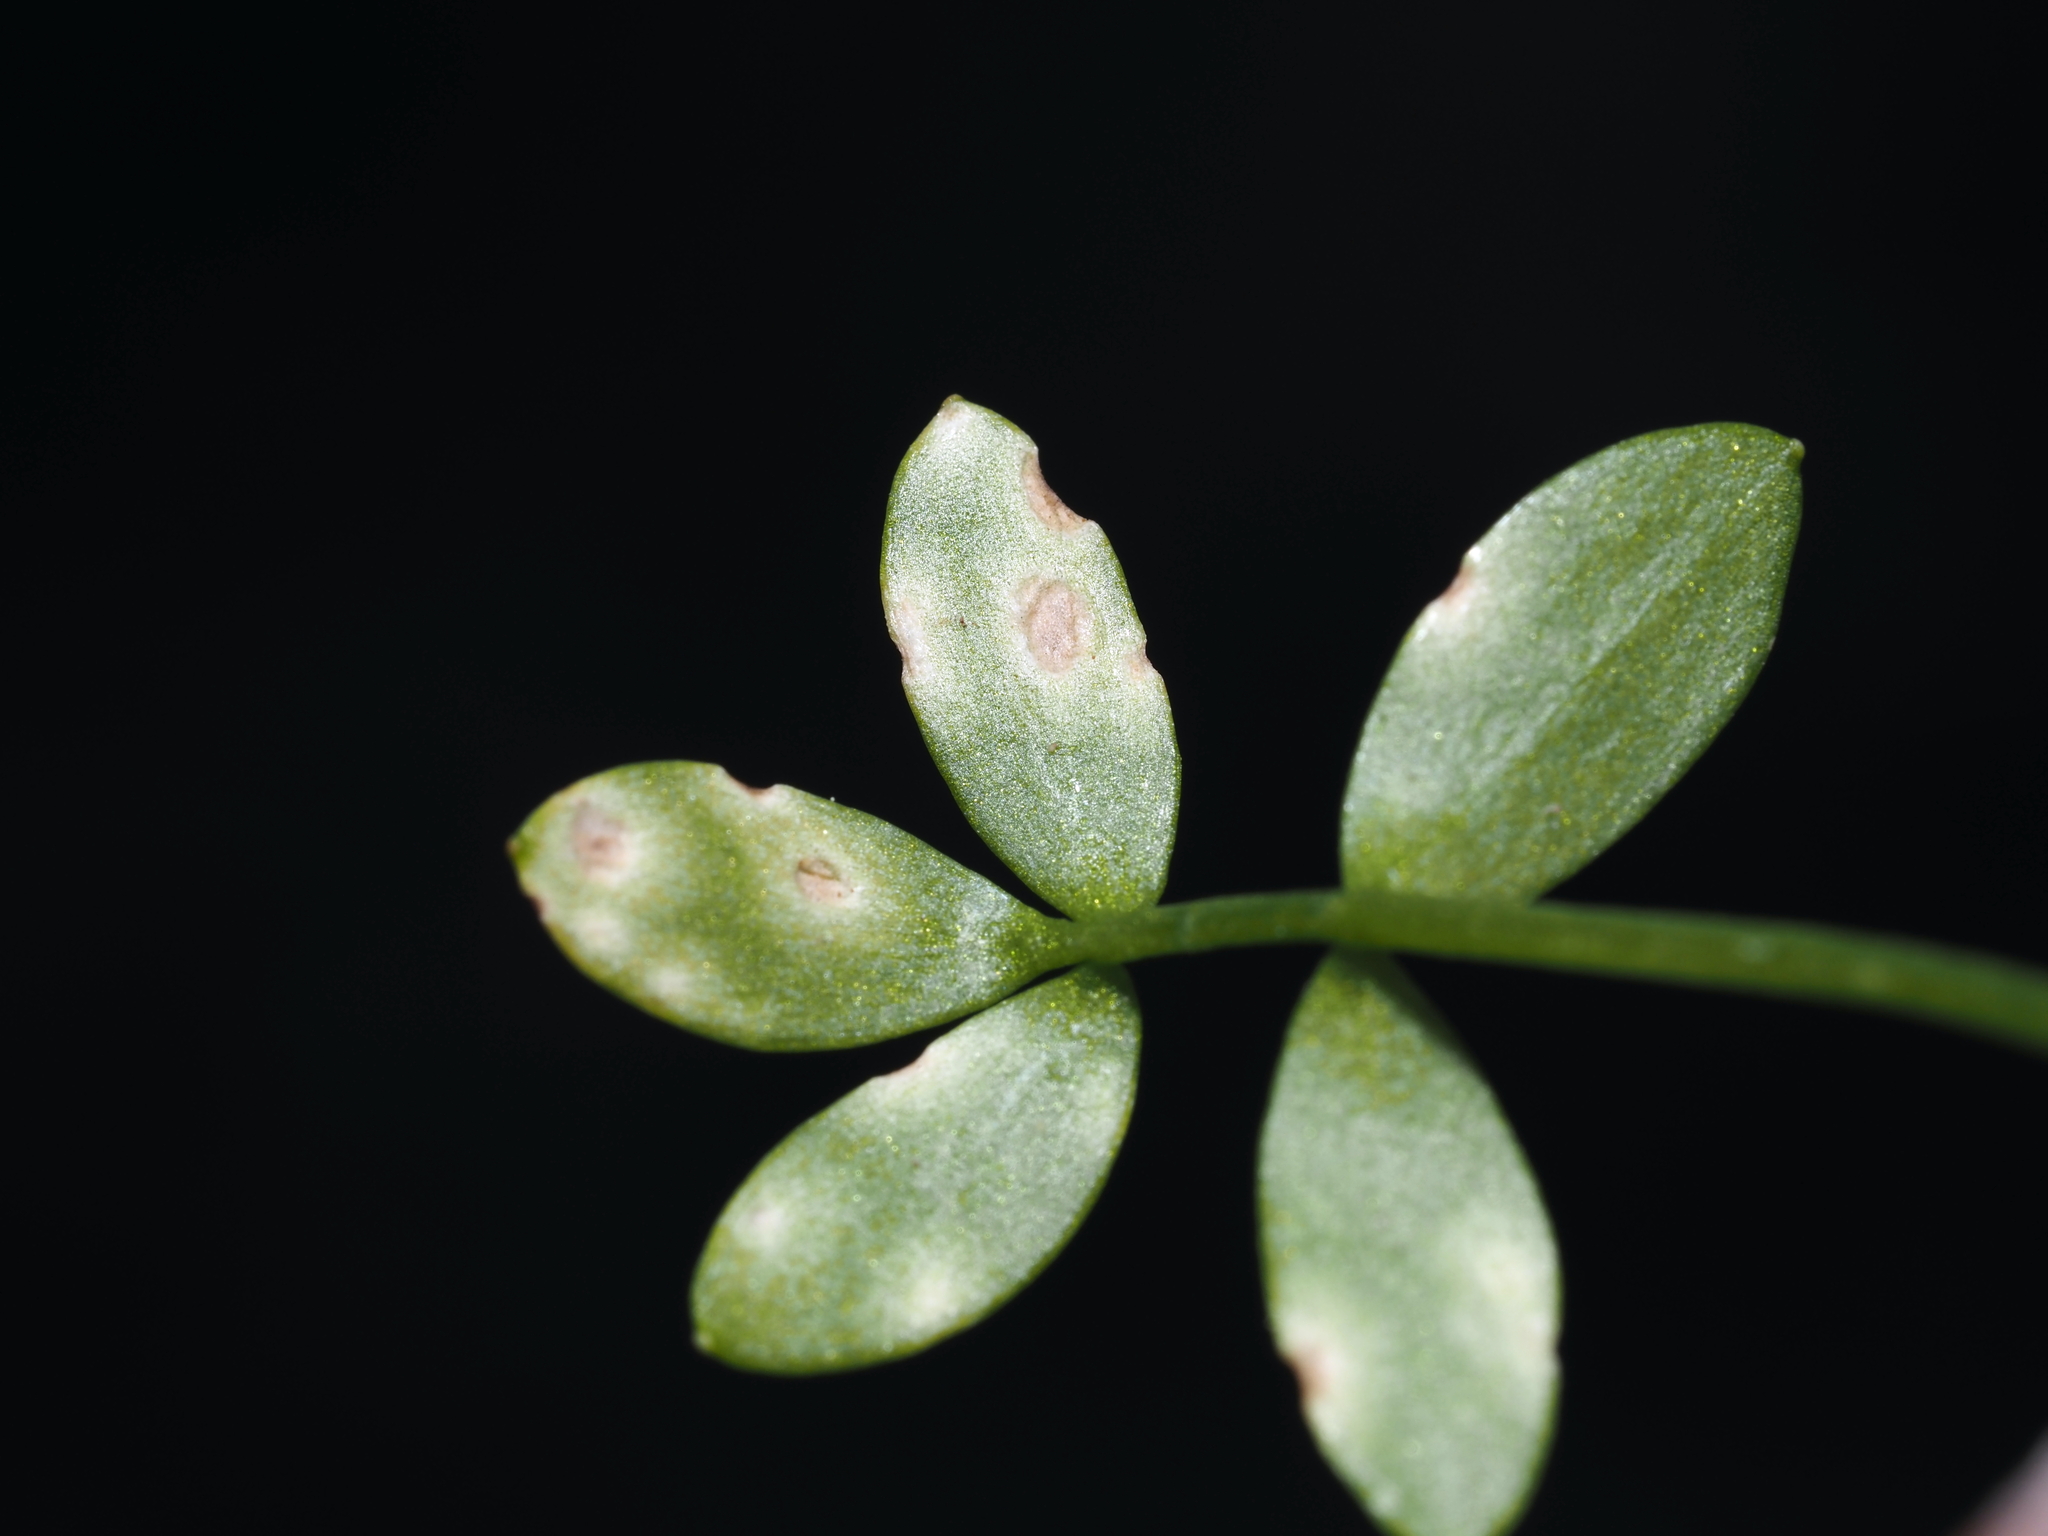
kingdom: Plantae
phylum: Tracheophyta
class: Magnoliopsida
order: Brassicales
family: Limnanthaceae
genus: Floerkea
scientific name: Floerkea proserpinacoides
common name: False mermaid
